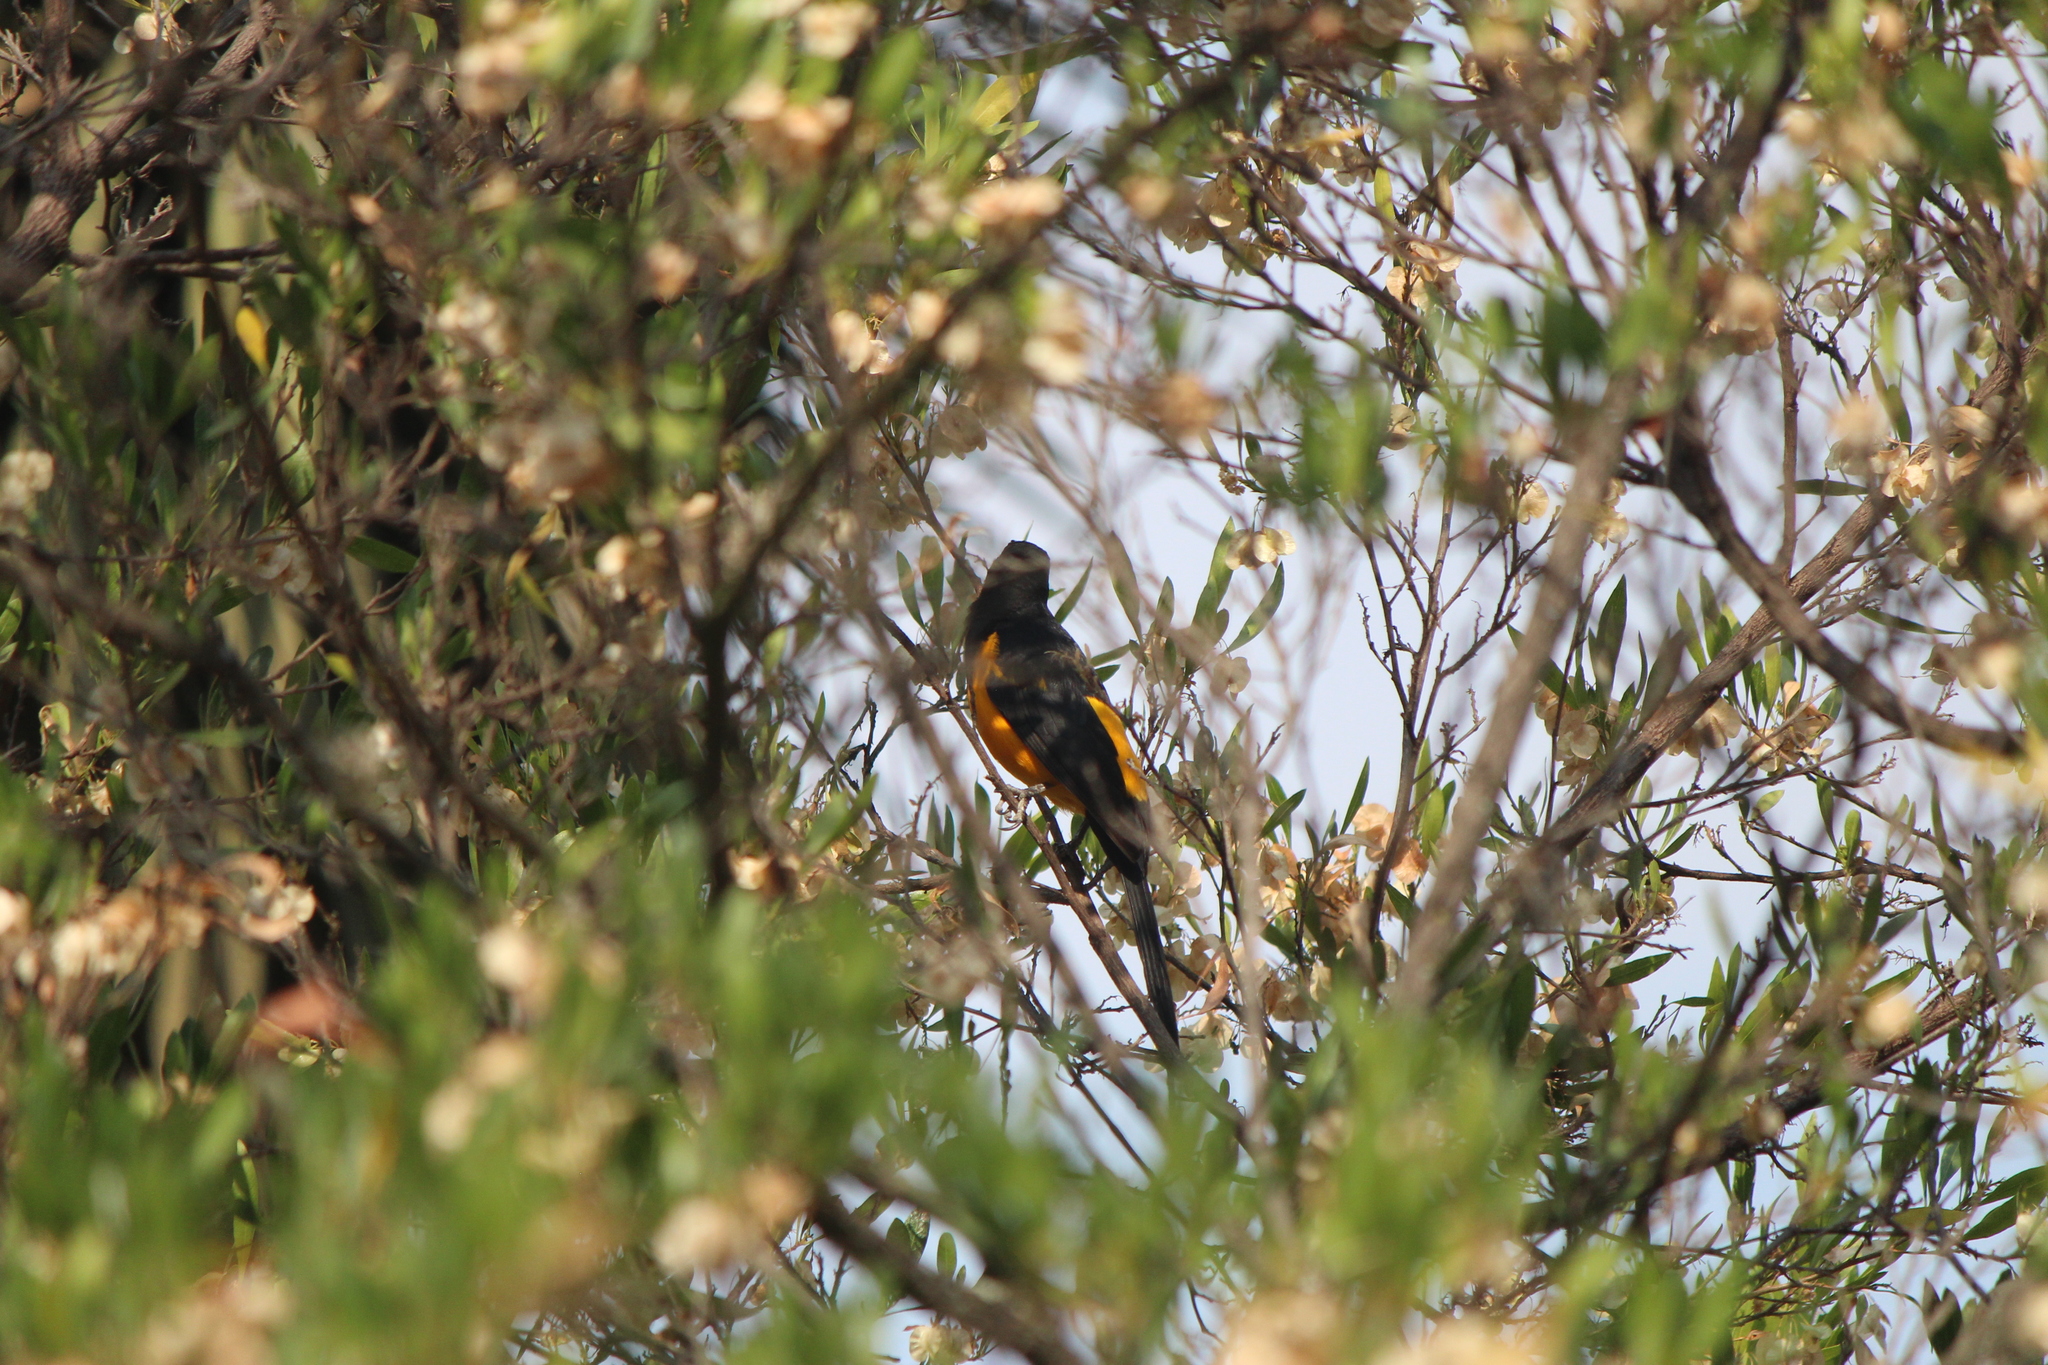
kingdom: Animalia
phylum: Chordata
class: Aves
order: Passeriformes
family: Icteridae
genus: Icterus
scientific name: Icterus wagleri
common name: Black-vented oriole
